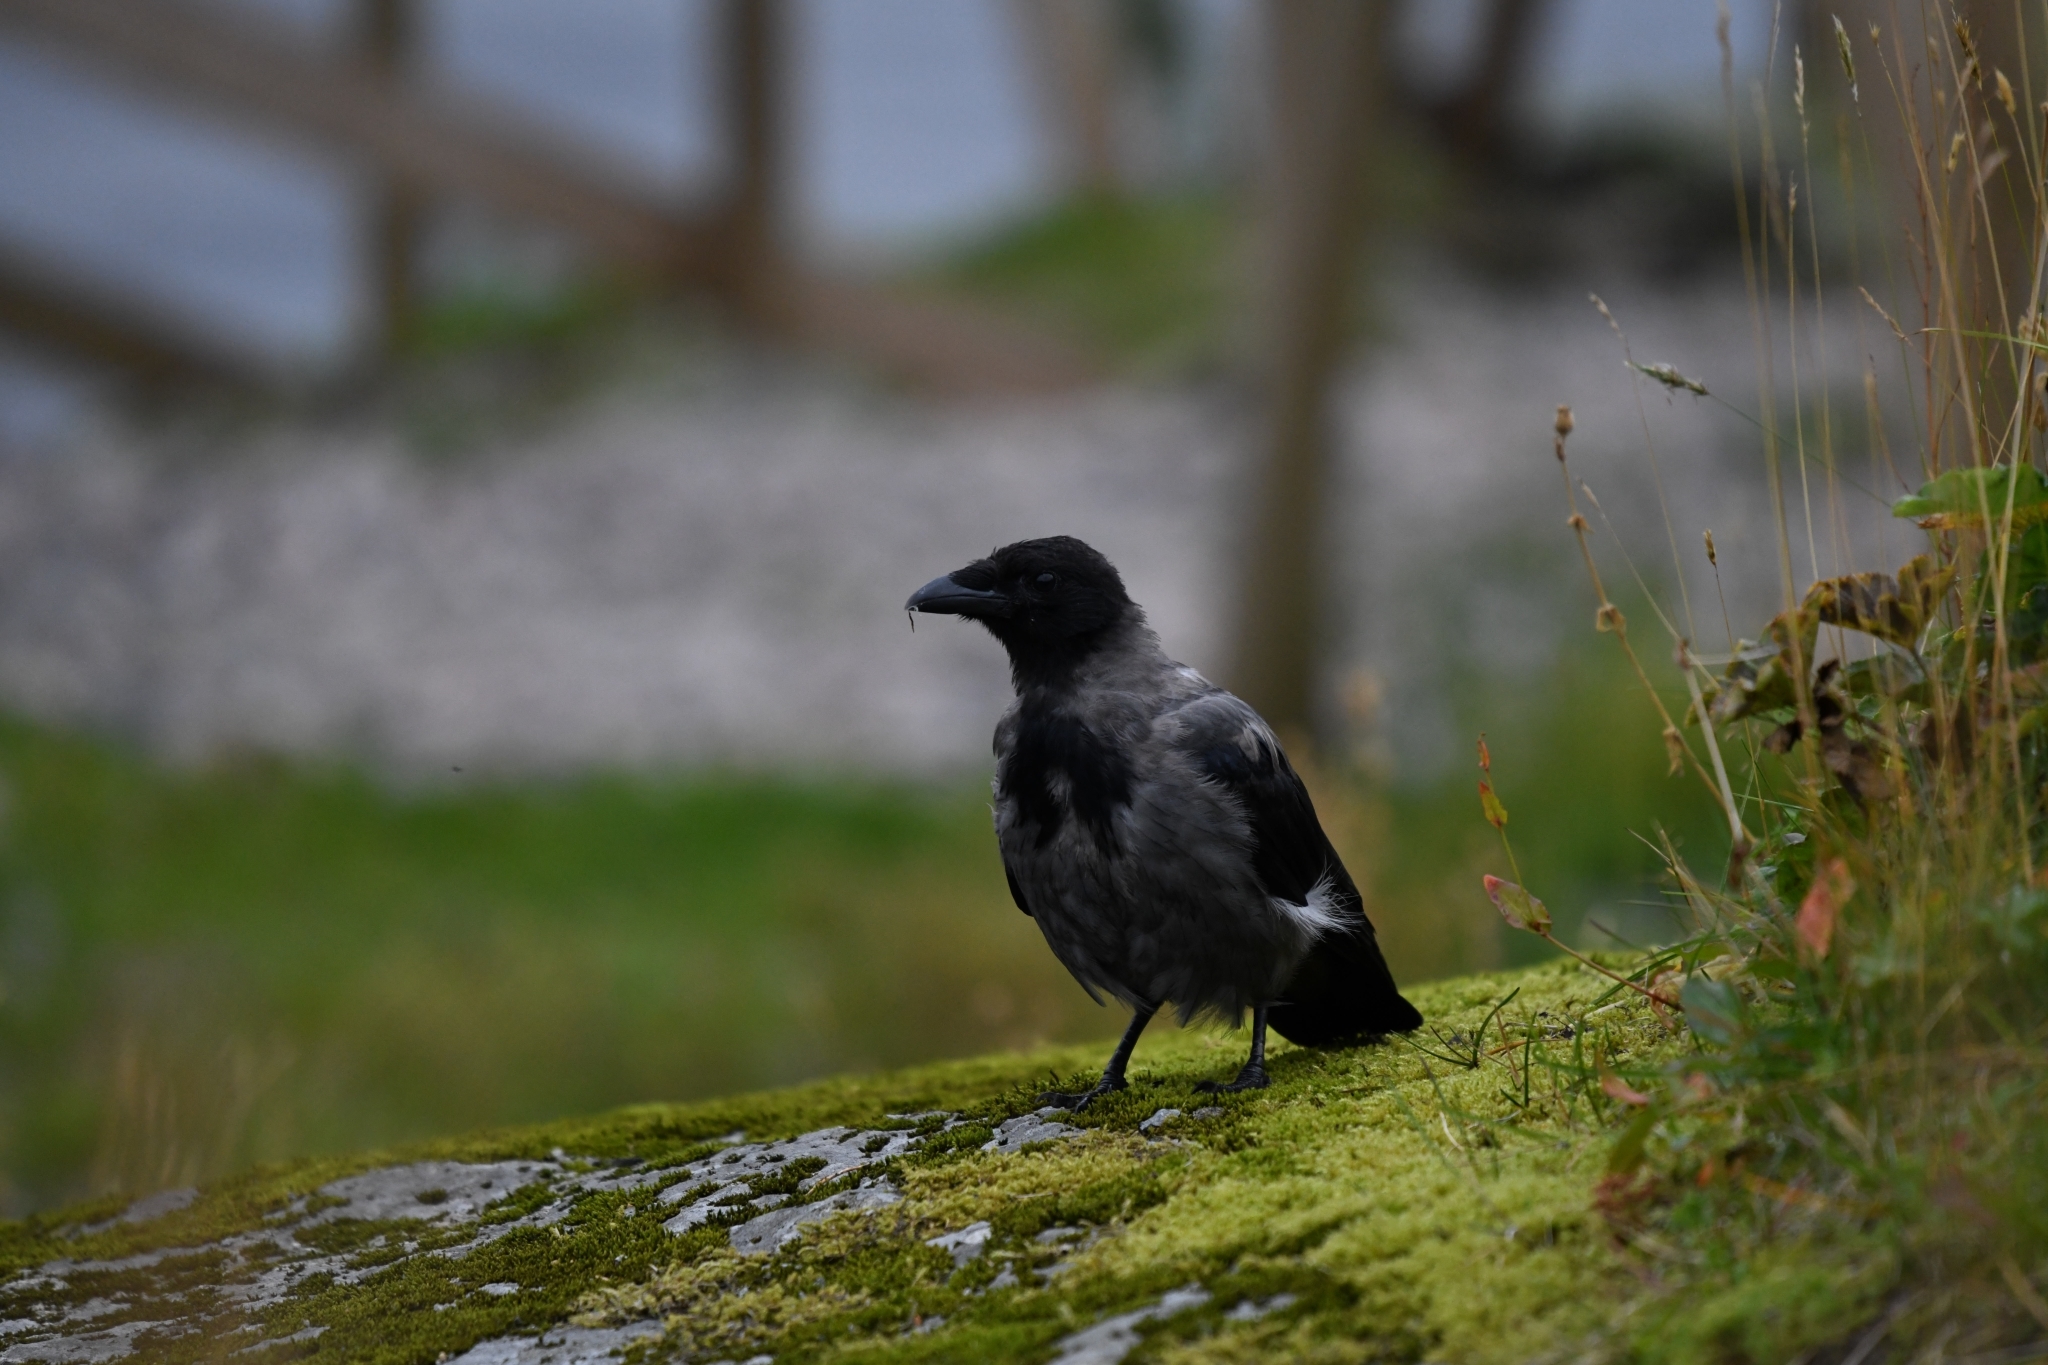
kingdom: Animalia
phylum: Chordata
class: Aves
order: Passeriformes
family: Corvidae
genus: Corvus
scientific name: Corvus cornix
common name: Hooded crow
